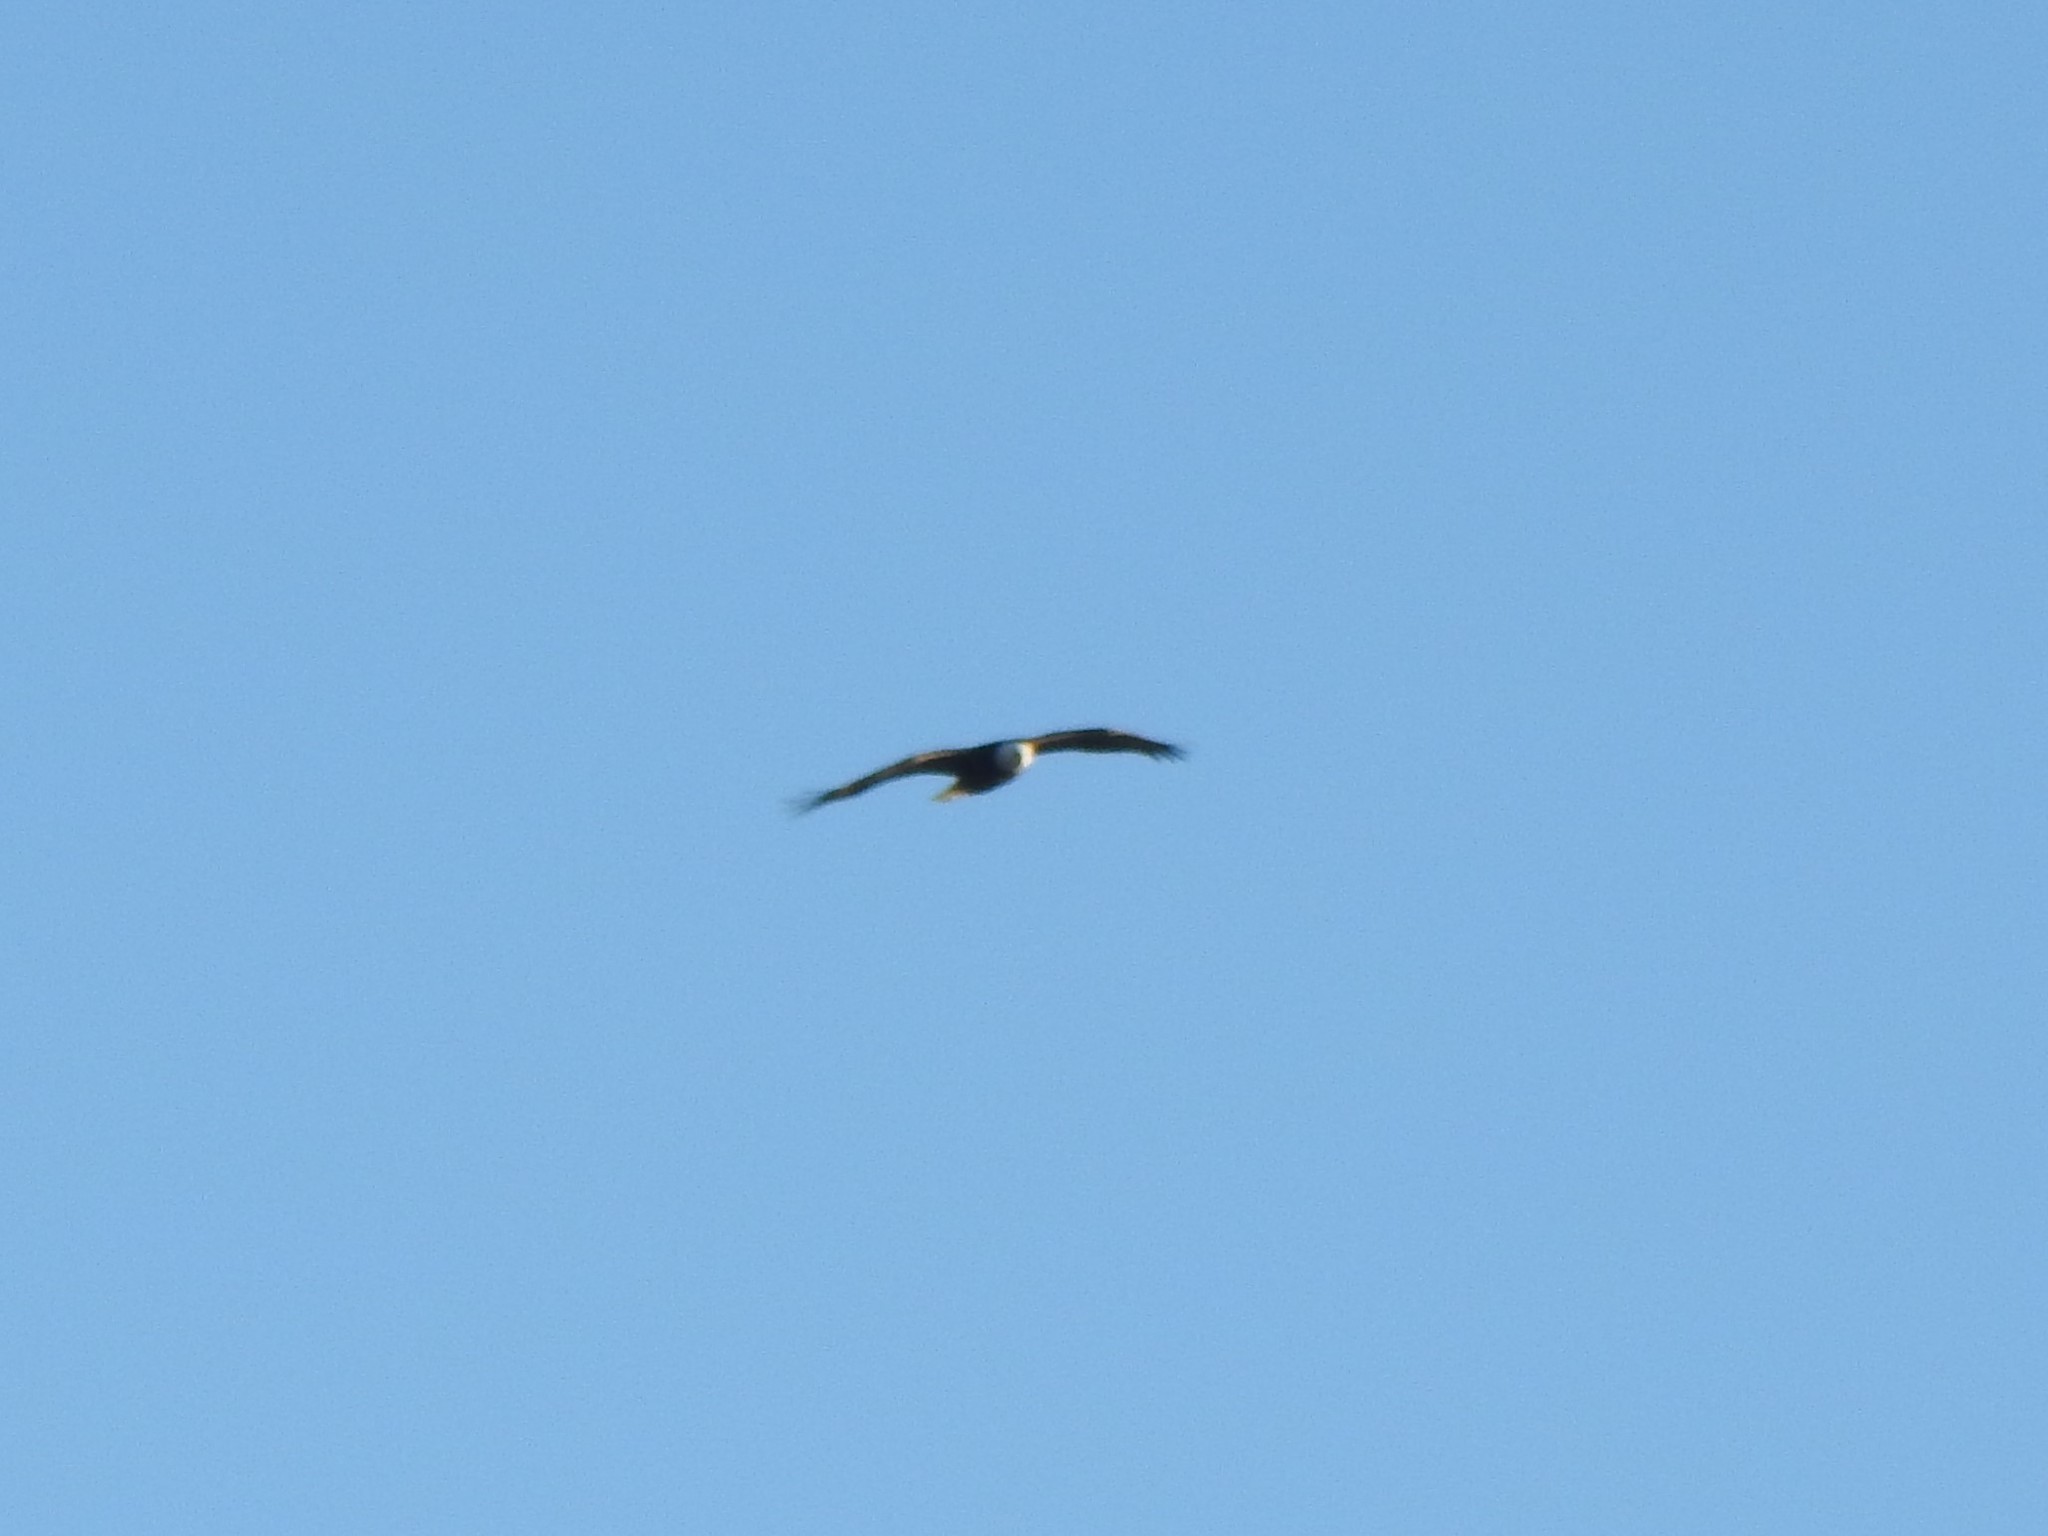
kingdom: Animalia
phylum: Chordata
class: Aves
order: Accipitriformes
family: Accipitridae
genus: Haliaeetus
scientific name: Haliaeetus leucocephalus
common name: Bald eagle
